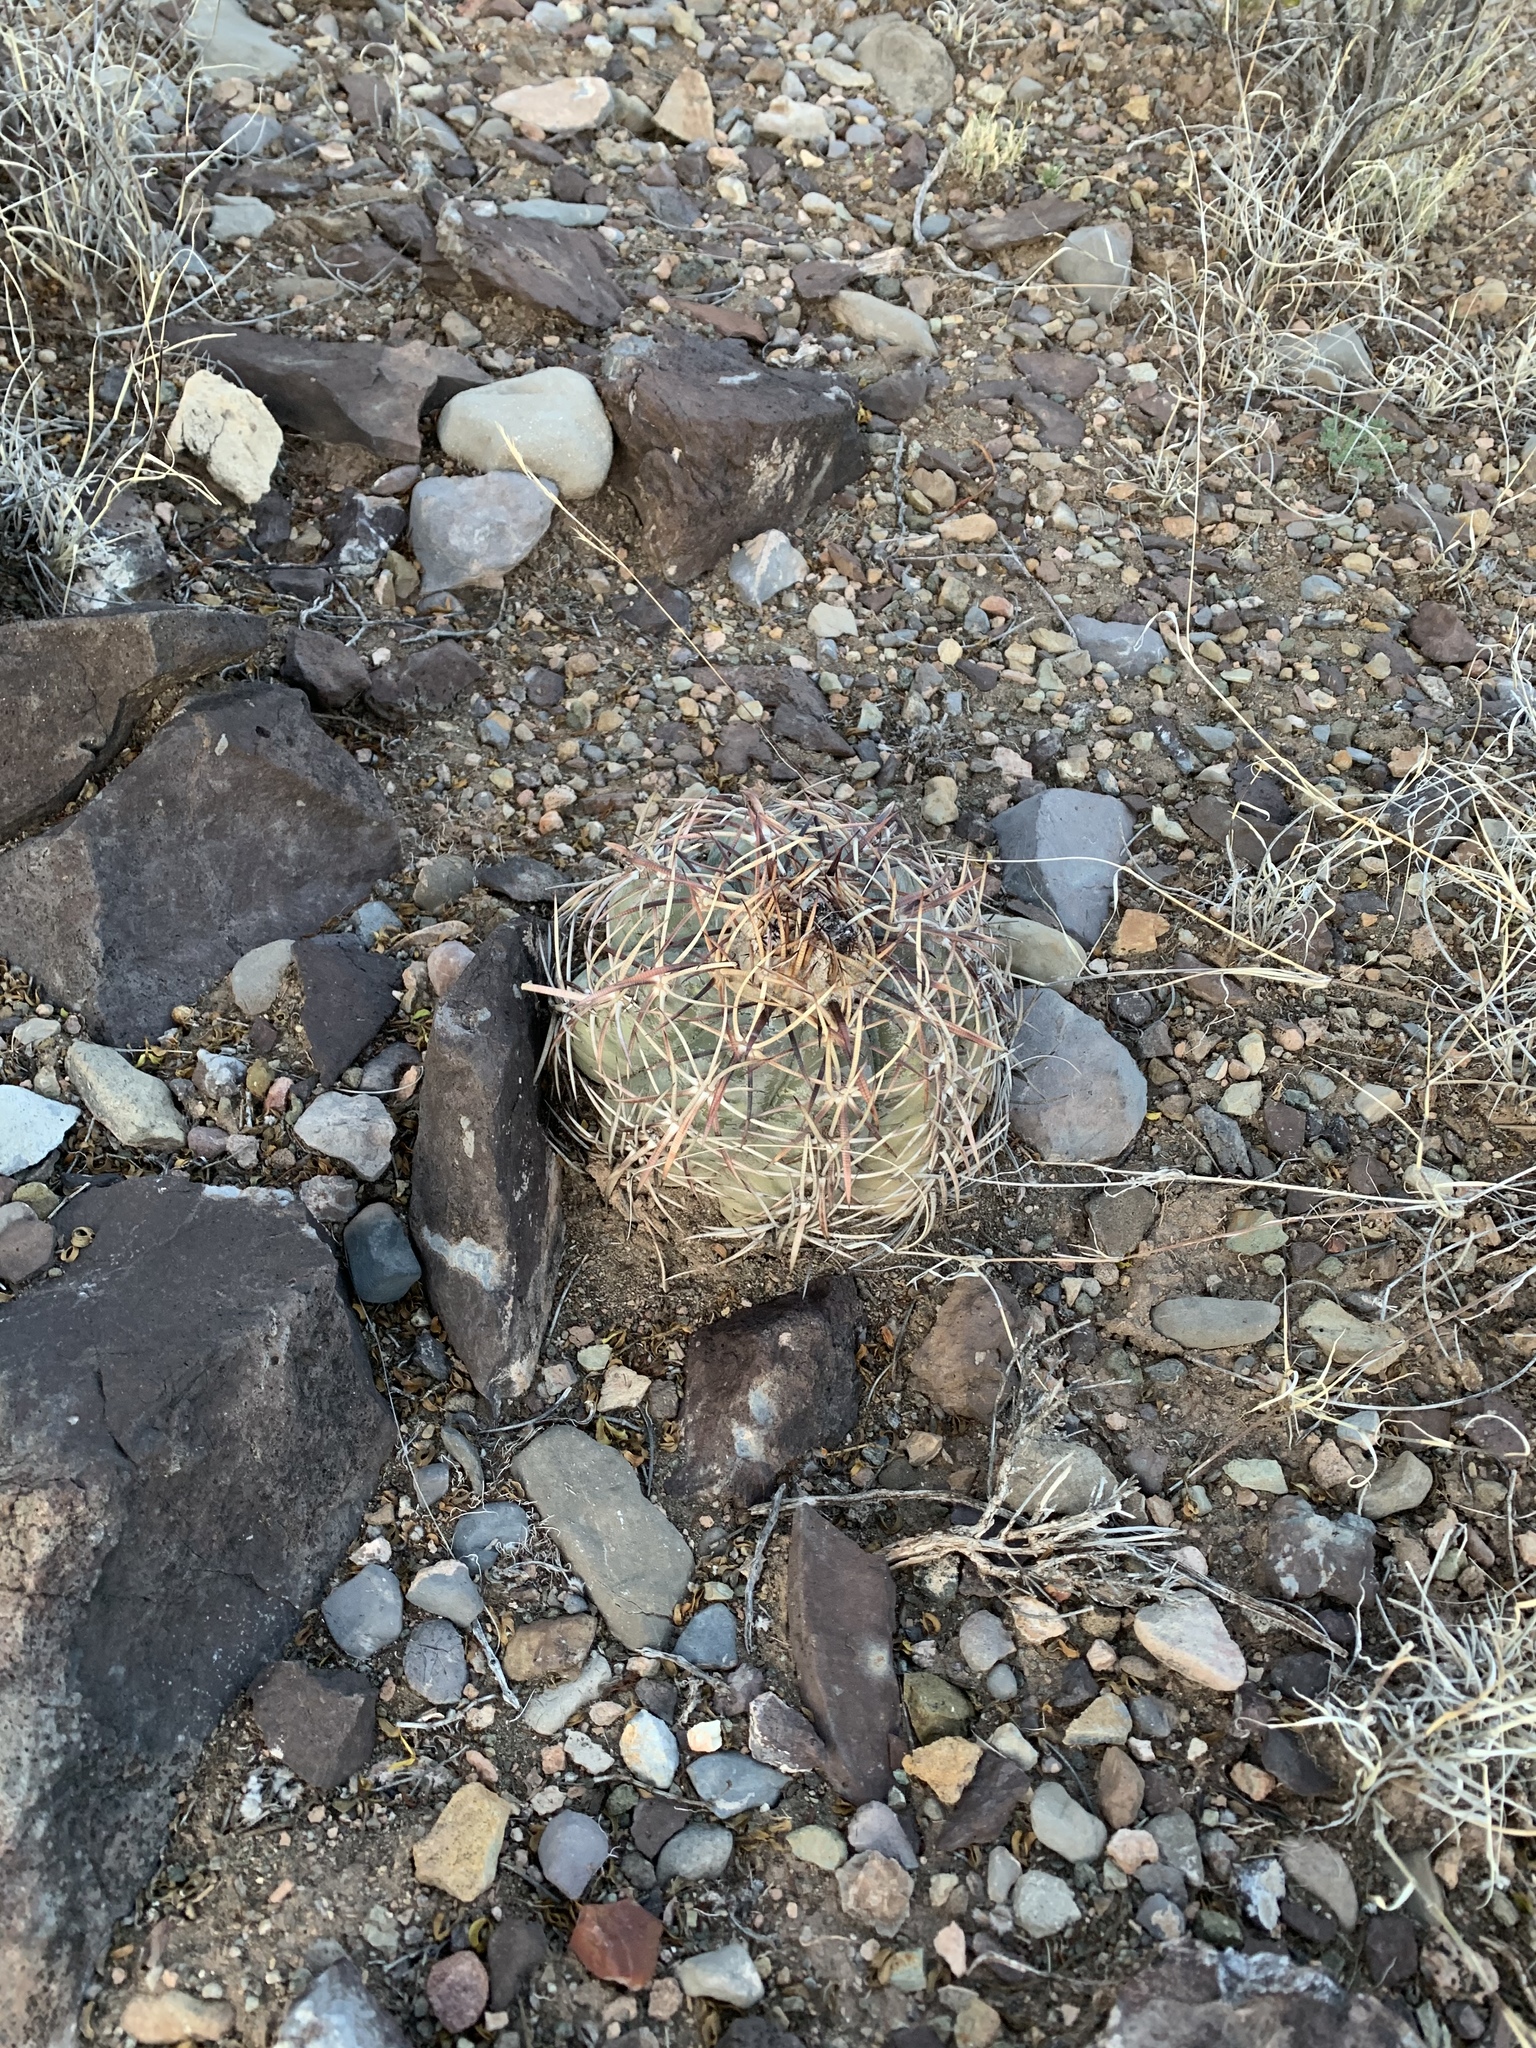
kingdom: Plantae
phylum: Tracheophyta
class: Magnoliopsida
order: Caryophyllales
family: Cactaceae
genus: Echinocactus
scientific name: Echinocactus horizonthalonius
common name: Devilshead
